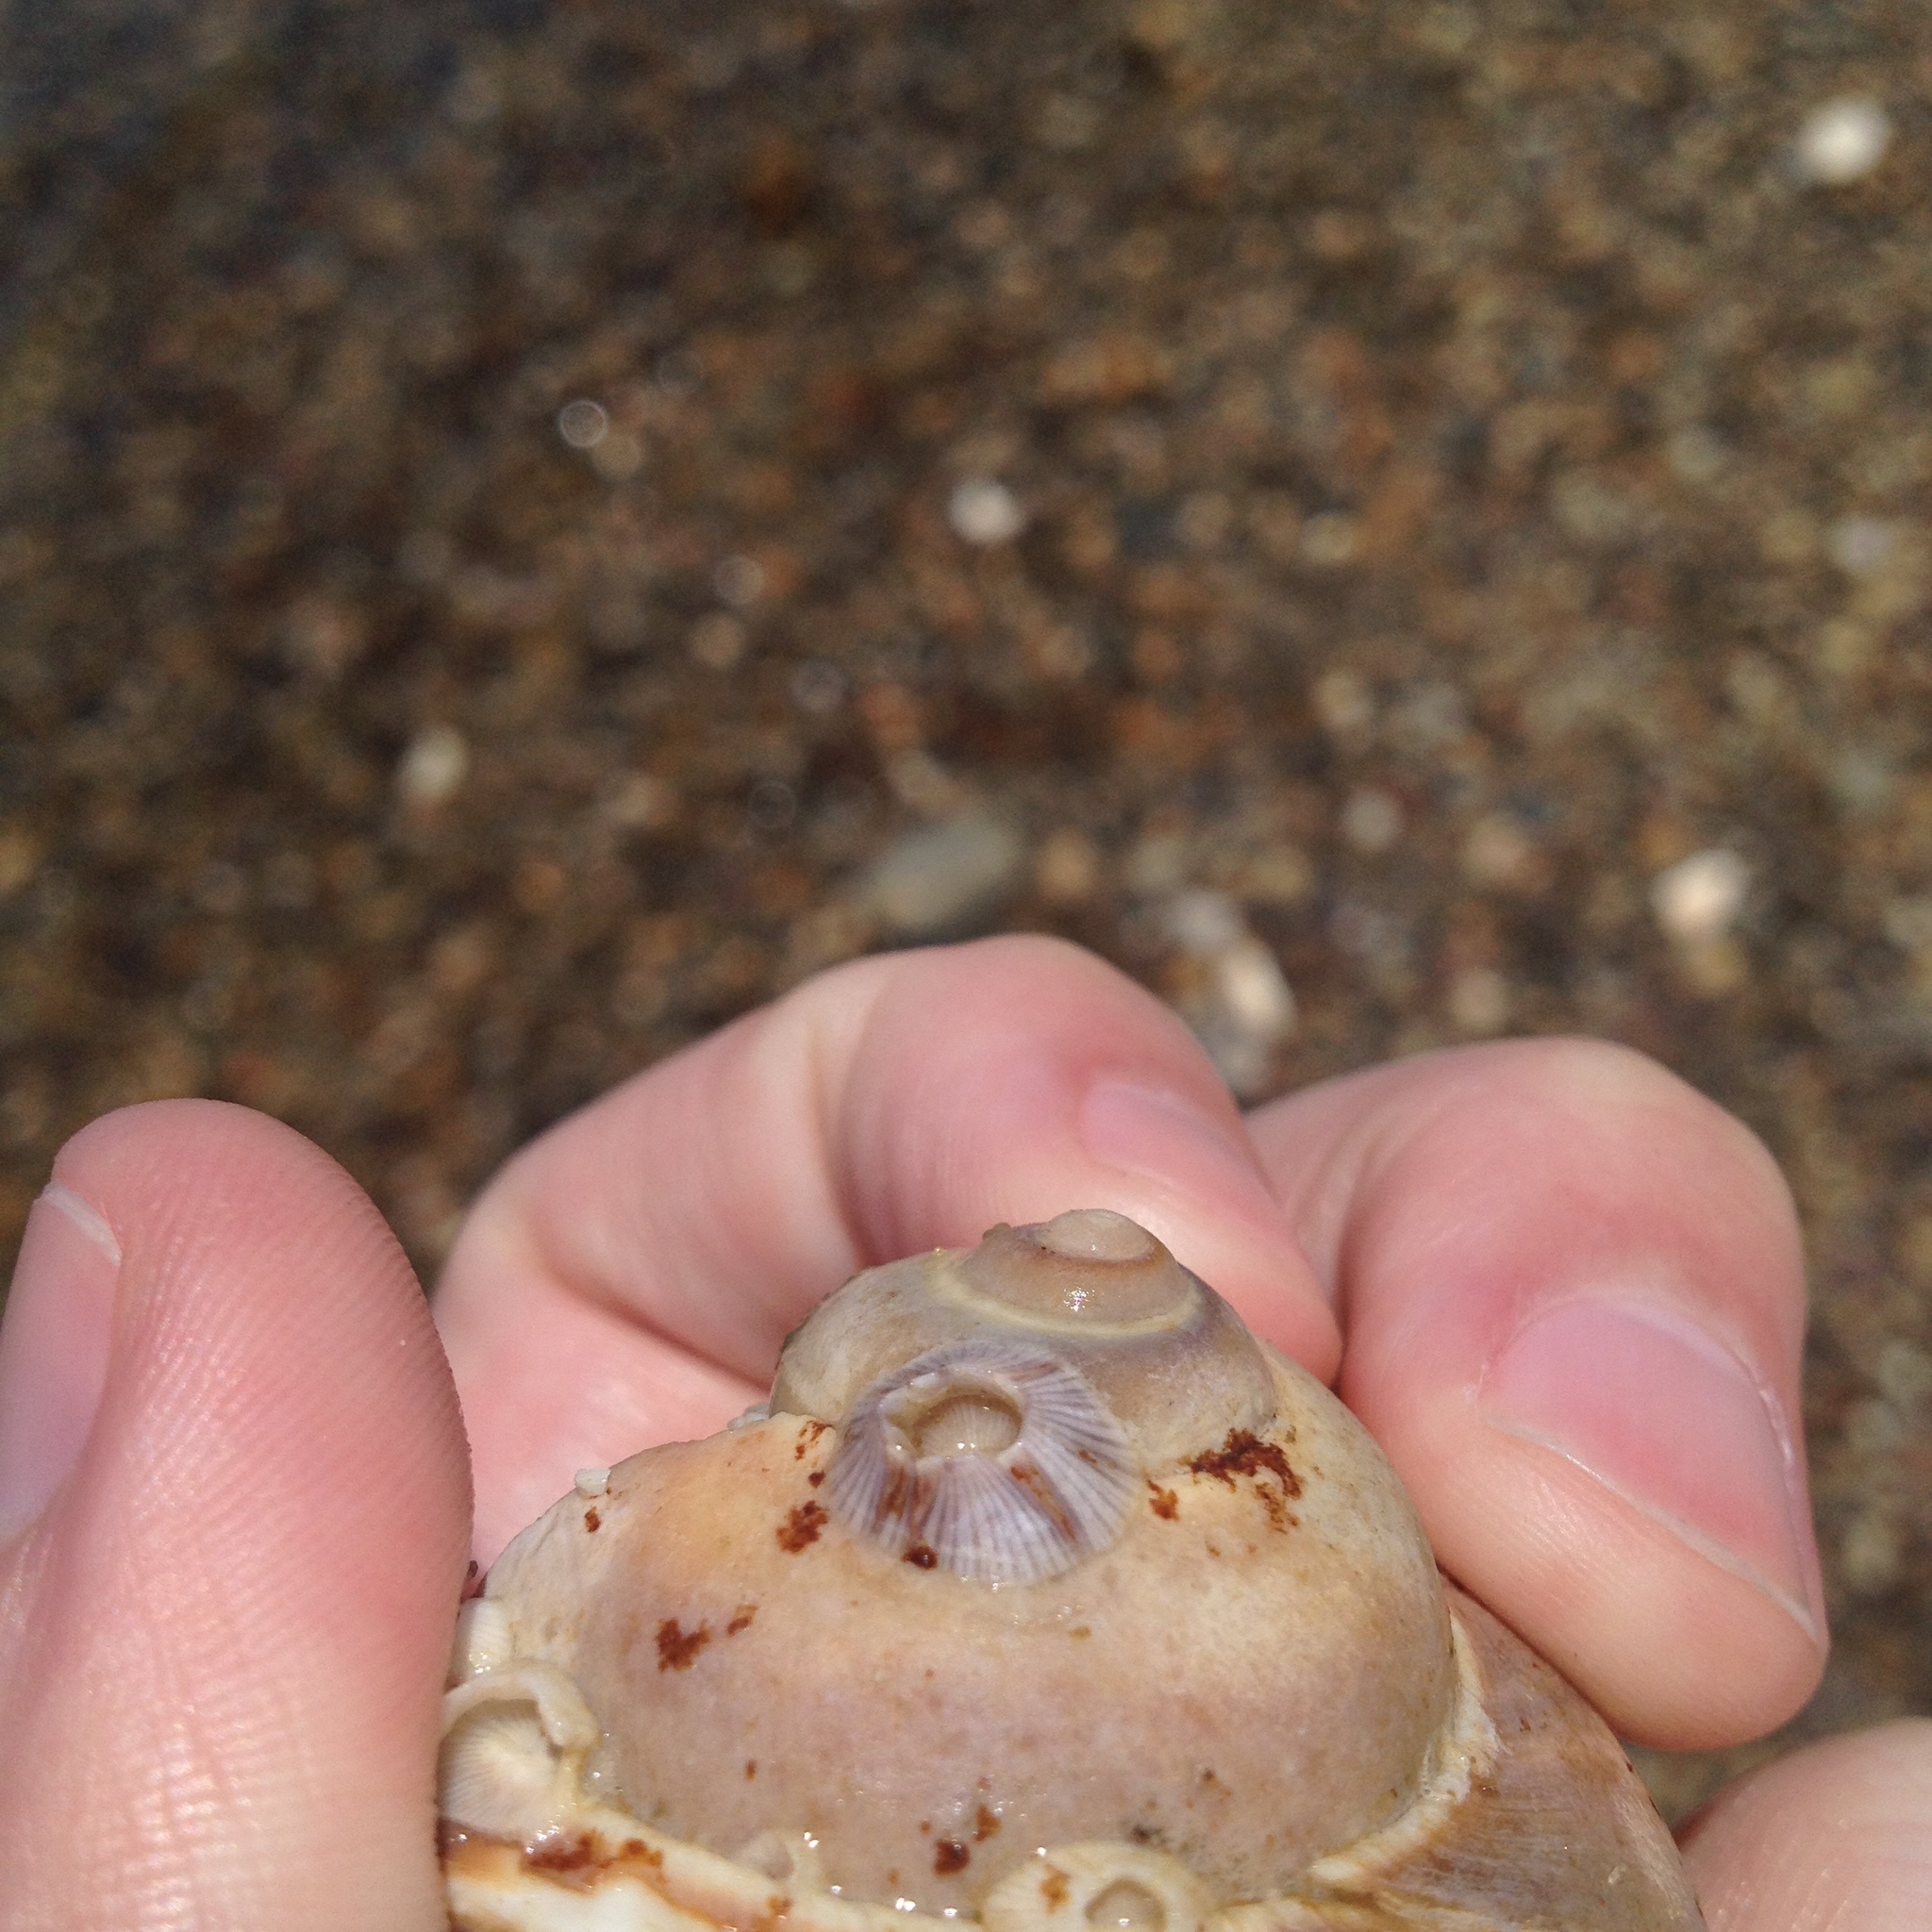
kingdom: Animalia
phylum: Arthropoda
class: Maxillopoda
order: Sessilia
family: Balanidae
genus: Amphibalanus
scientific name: Amphibalanus venustus
